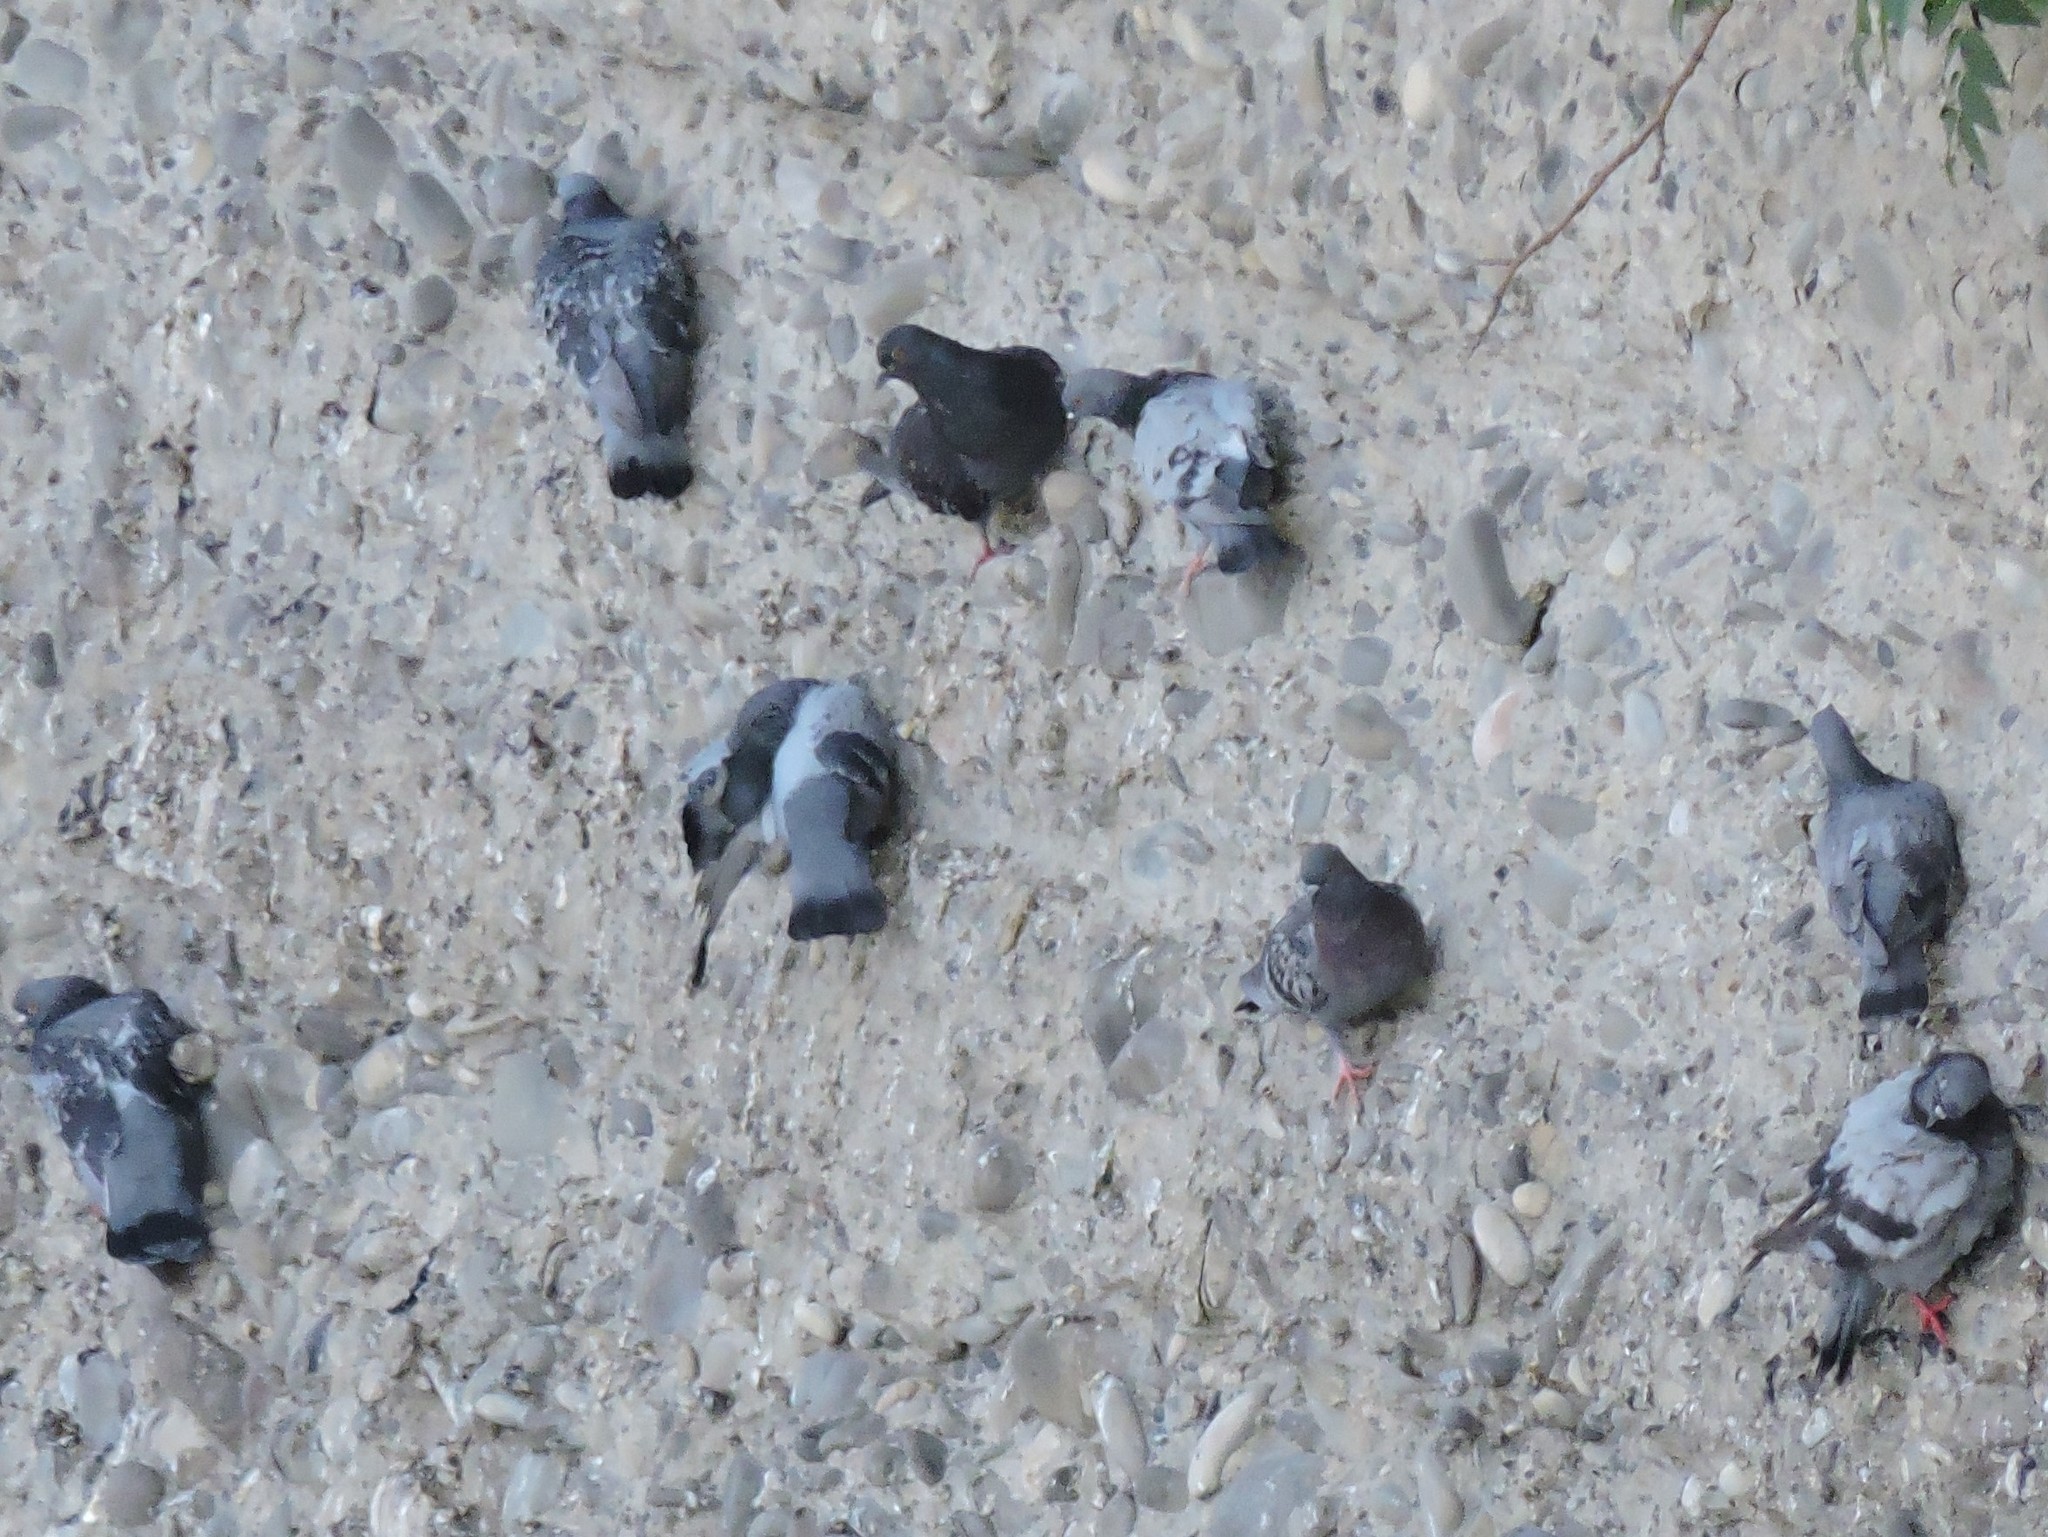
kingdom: Animalia
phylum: Chordata
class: Aves
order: Columbiformes
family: Columbidae
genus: Columba
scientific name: Columba livia
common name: Rock pigeon
